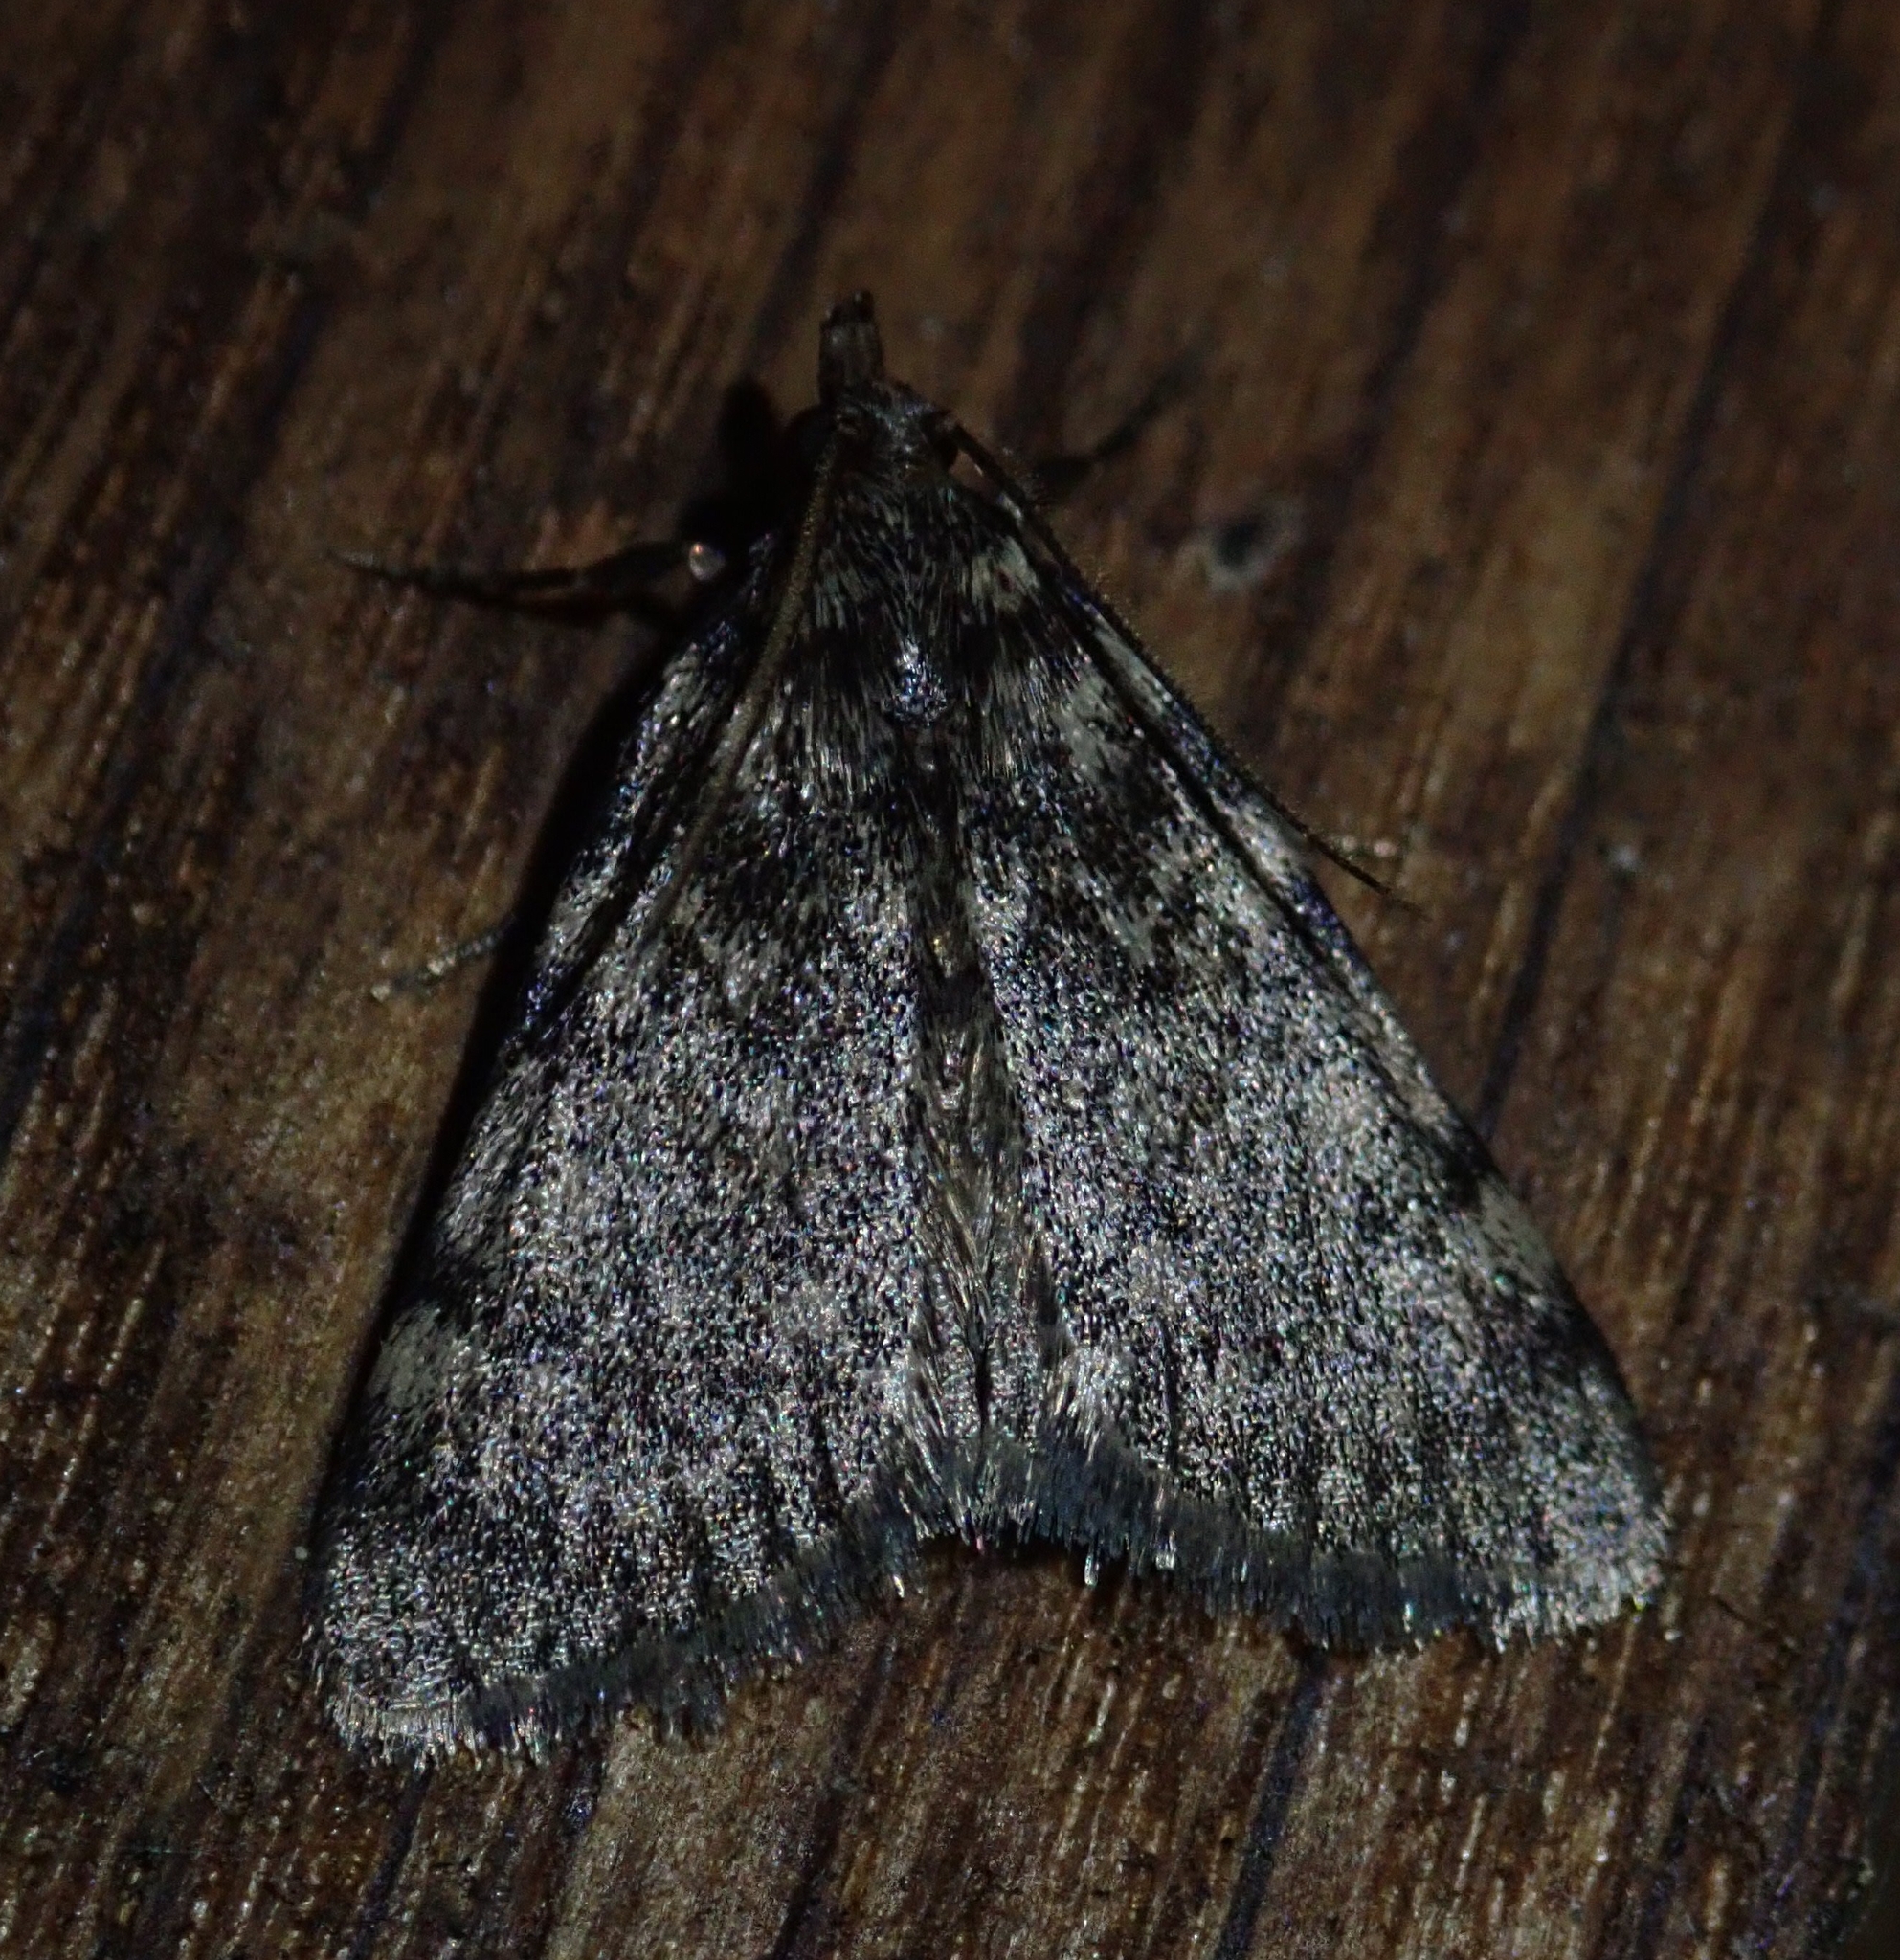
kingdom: Animalia
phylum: Arthropoda
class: Insecta
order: Lepidoptera
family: Pyralidae
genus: Aglossa
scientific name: Aglossa pinguinalis
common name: Large tabby
